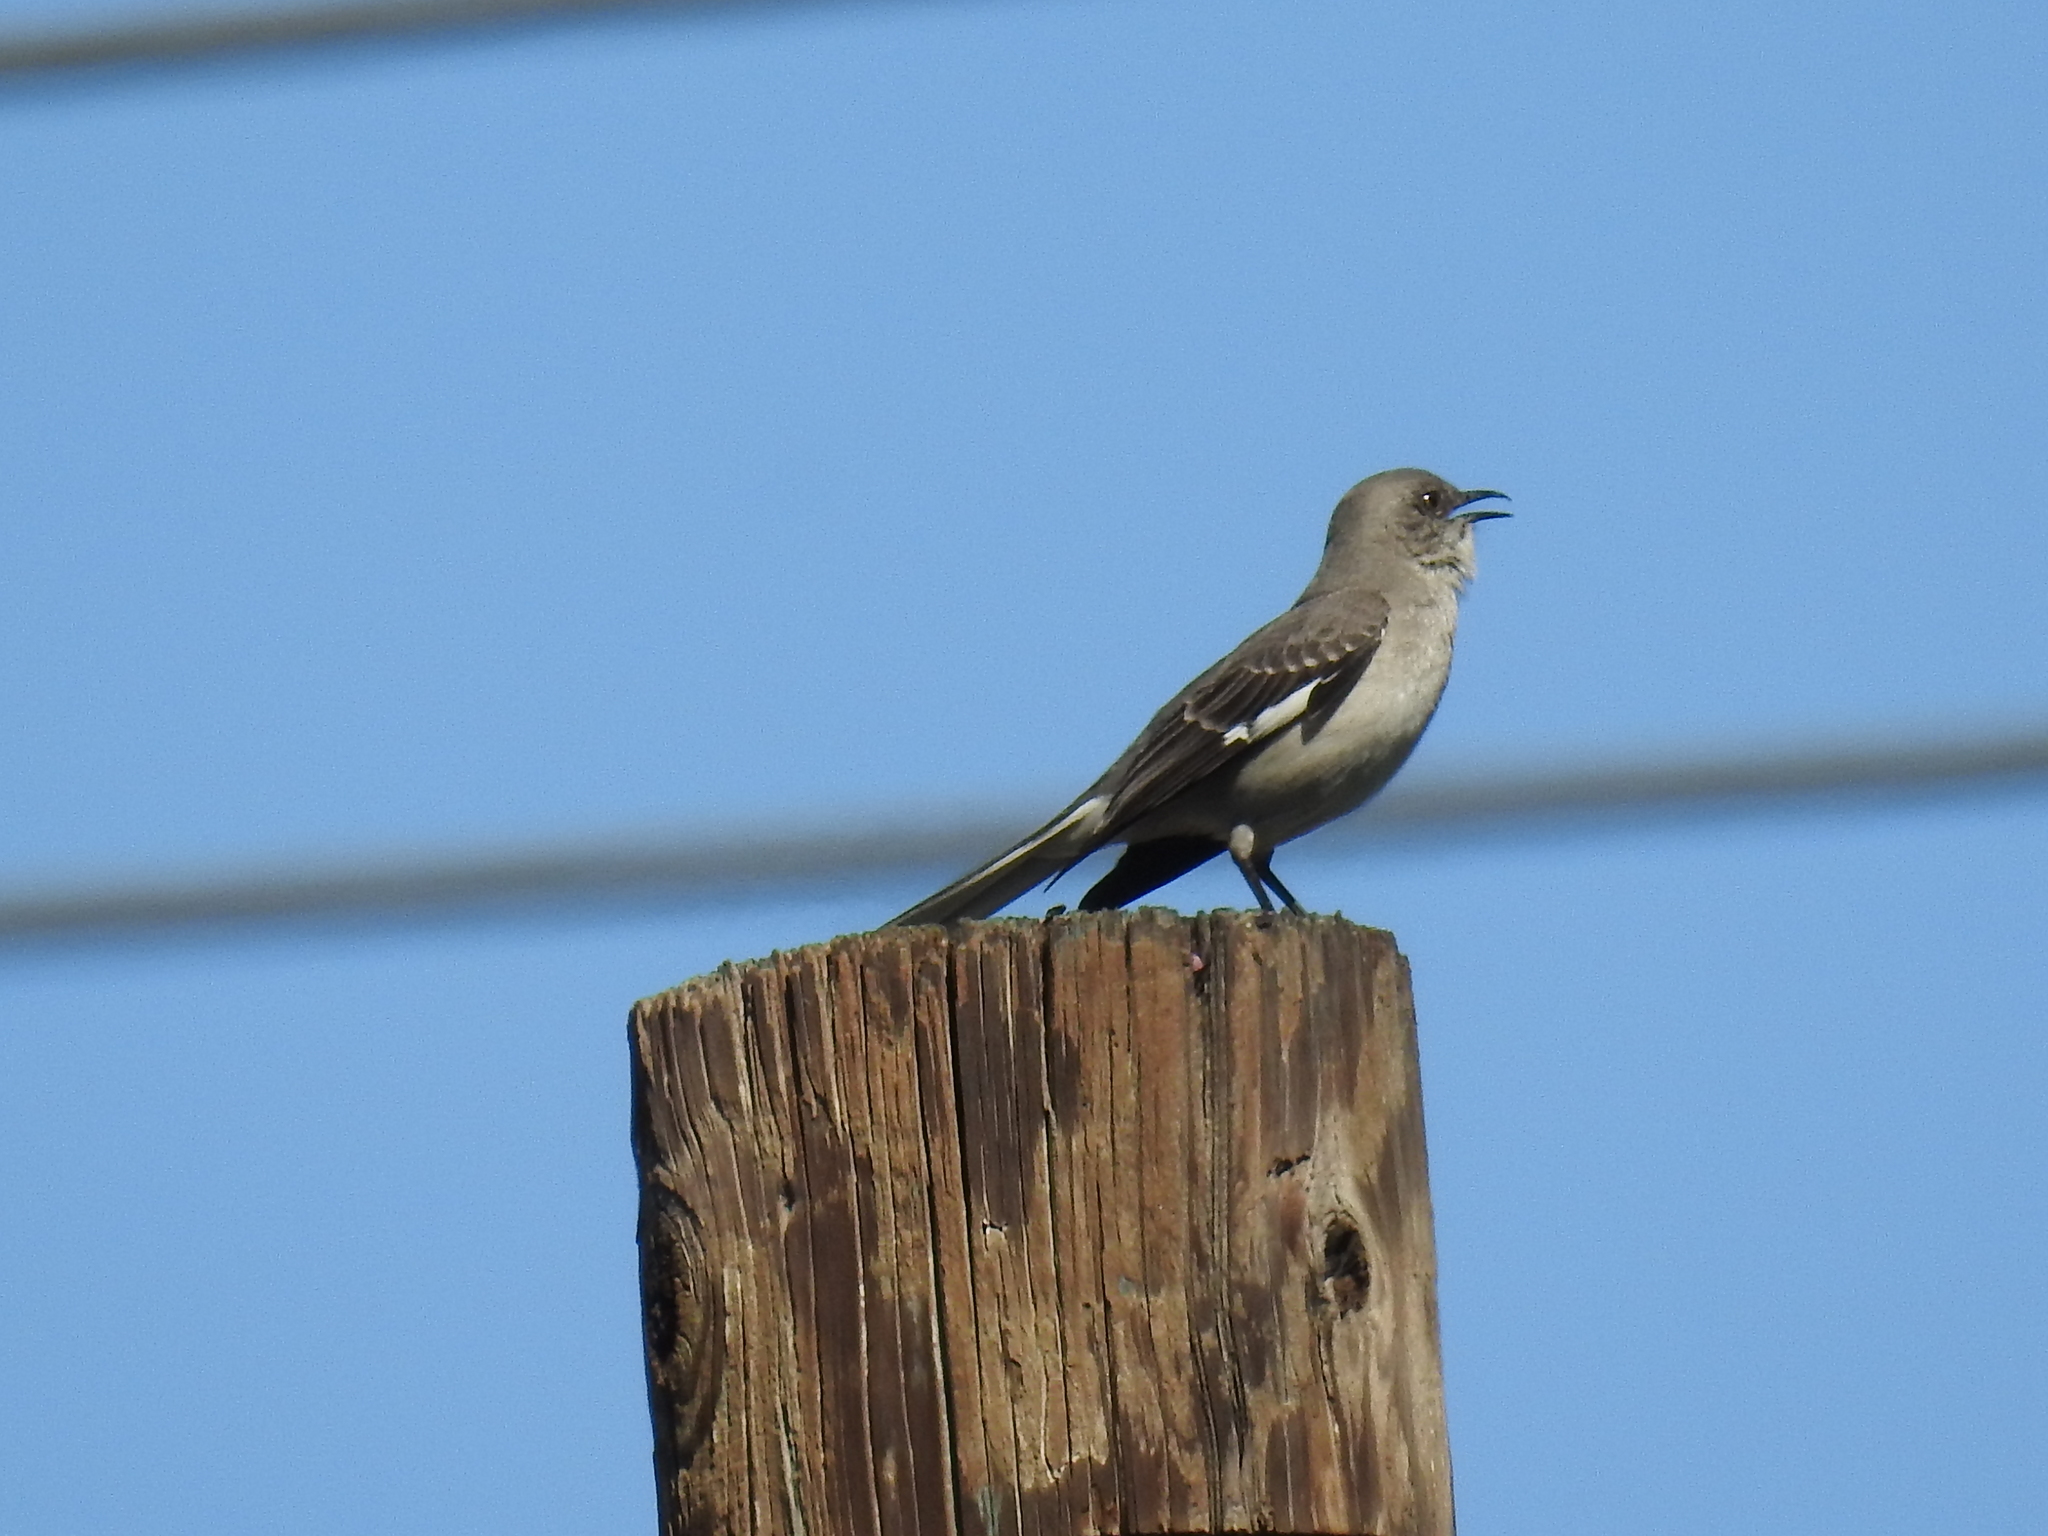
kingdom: Animalia
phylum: Chordata
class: Aves
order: Passeriformes
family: Mimidae
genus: Mimus
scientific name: Mimus polyglottos
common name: Northern mockingbird
